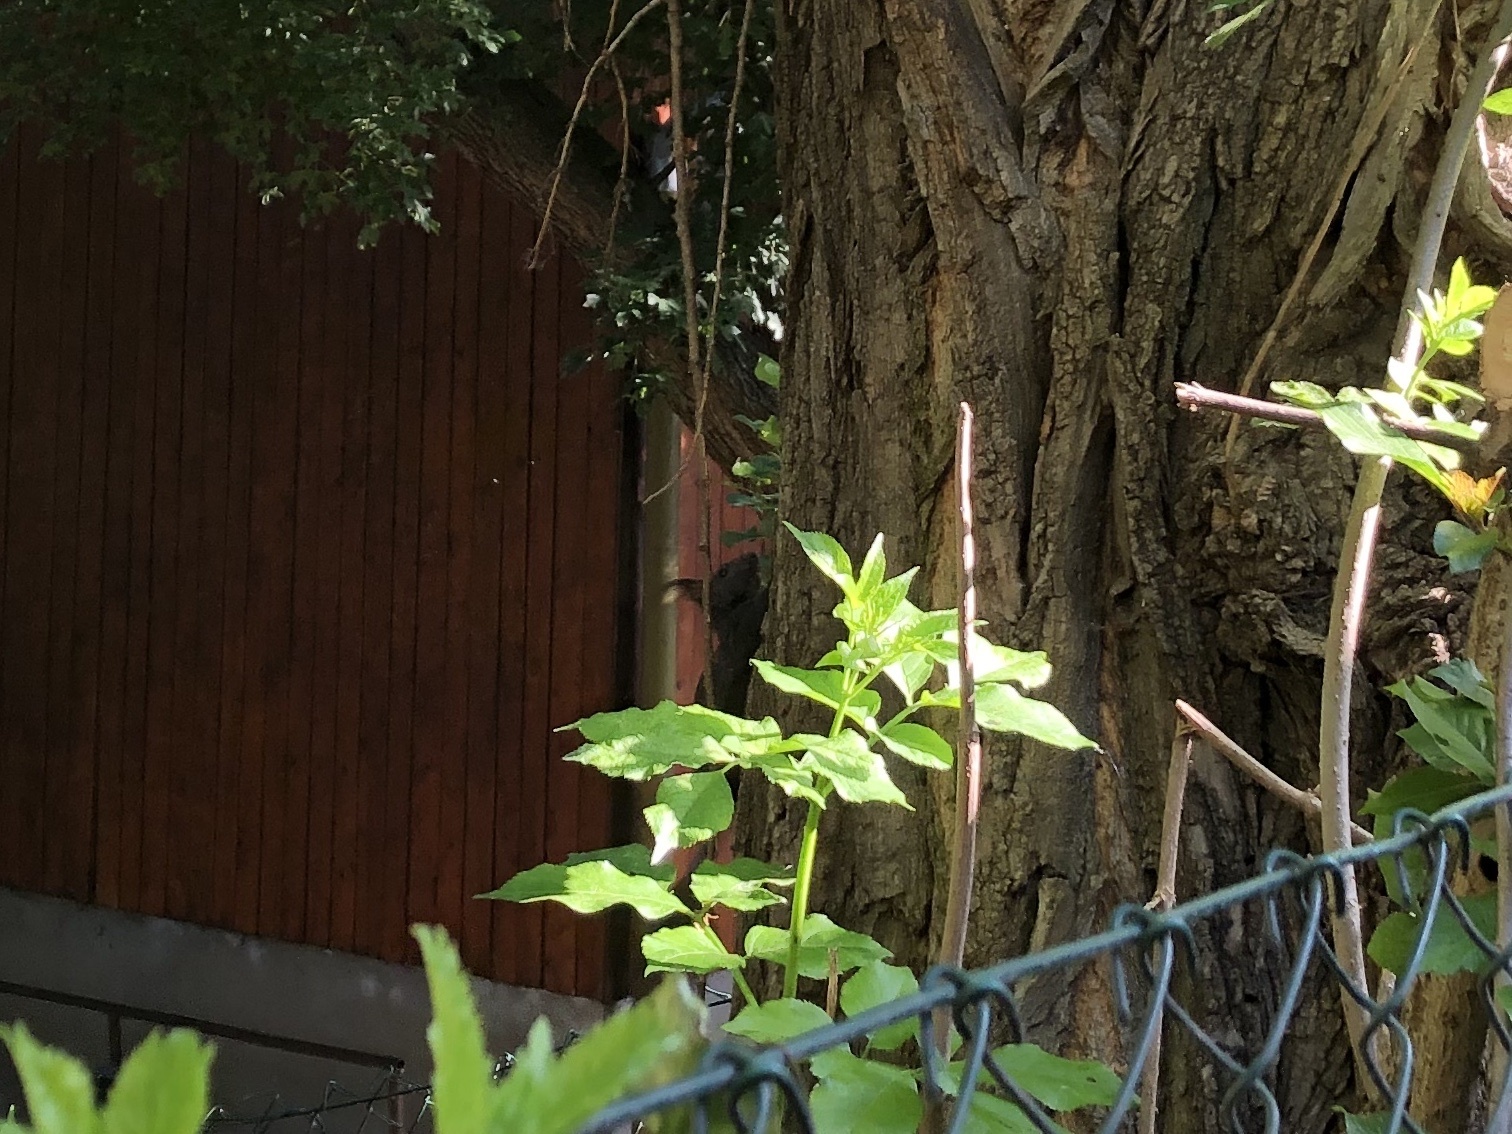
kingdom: Animalia
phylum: Chordata
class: Mammalia
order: Rodentia
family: Sciuridae
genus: Sciurus
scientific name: Sciurus vulgaris
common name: Eurasian red squirrel
